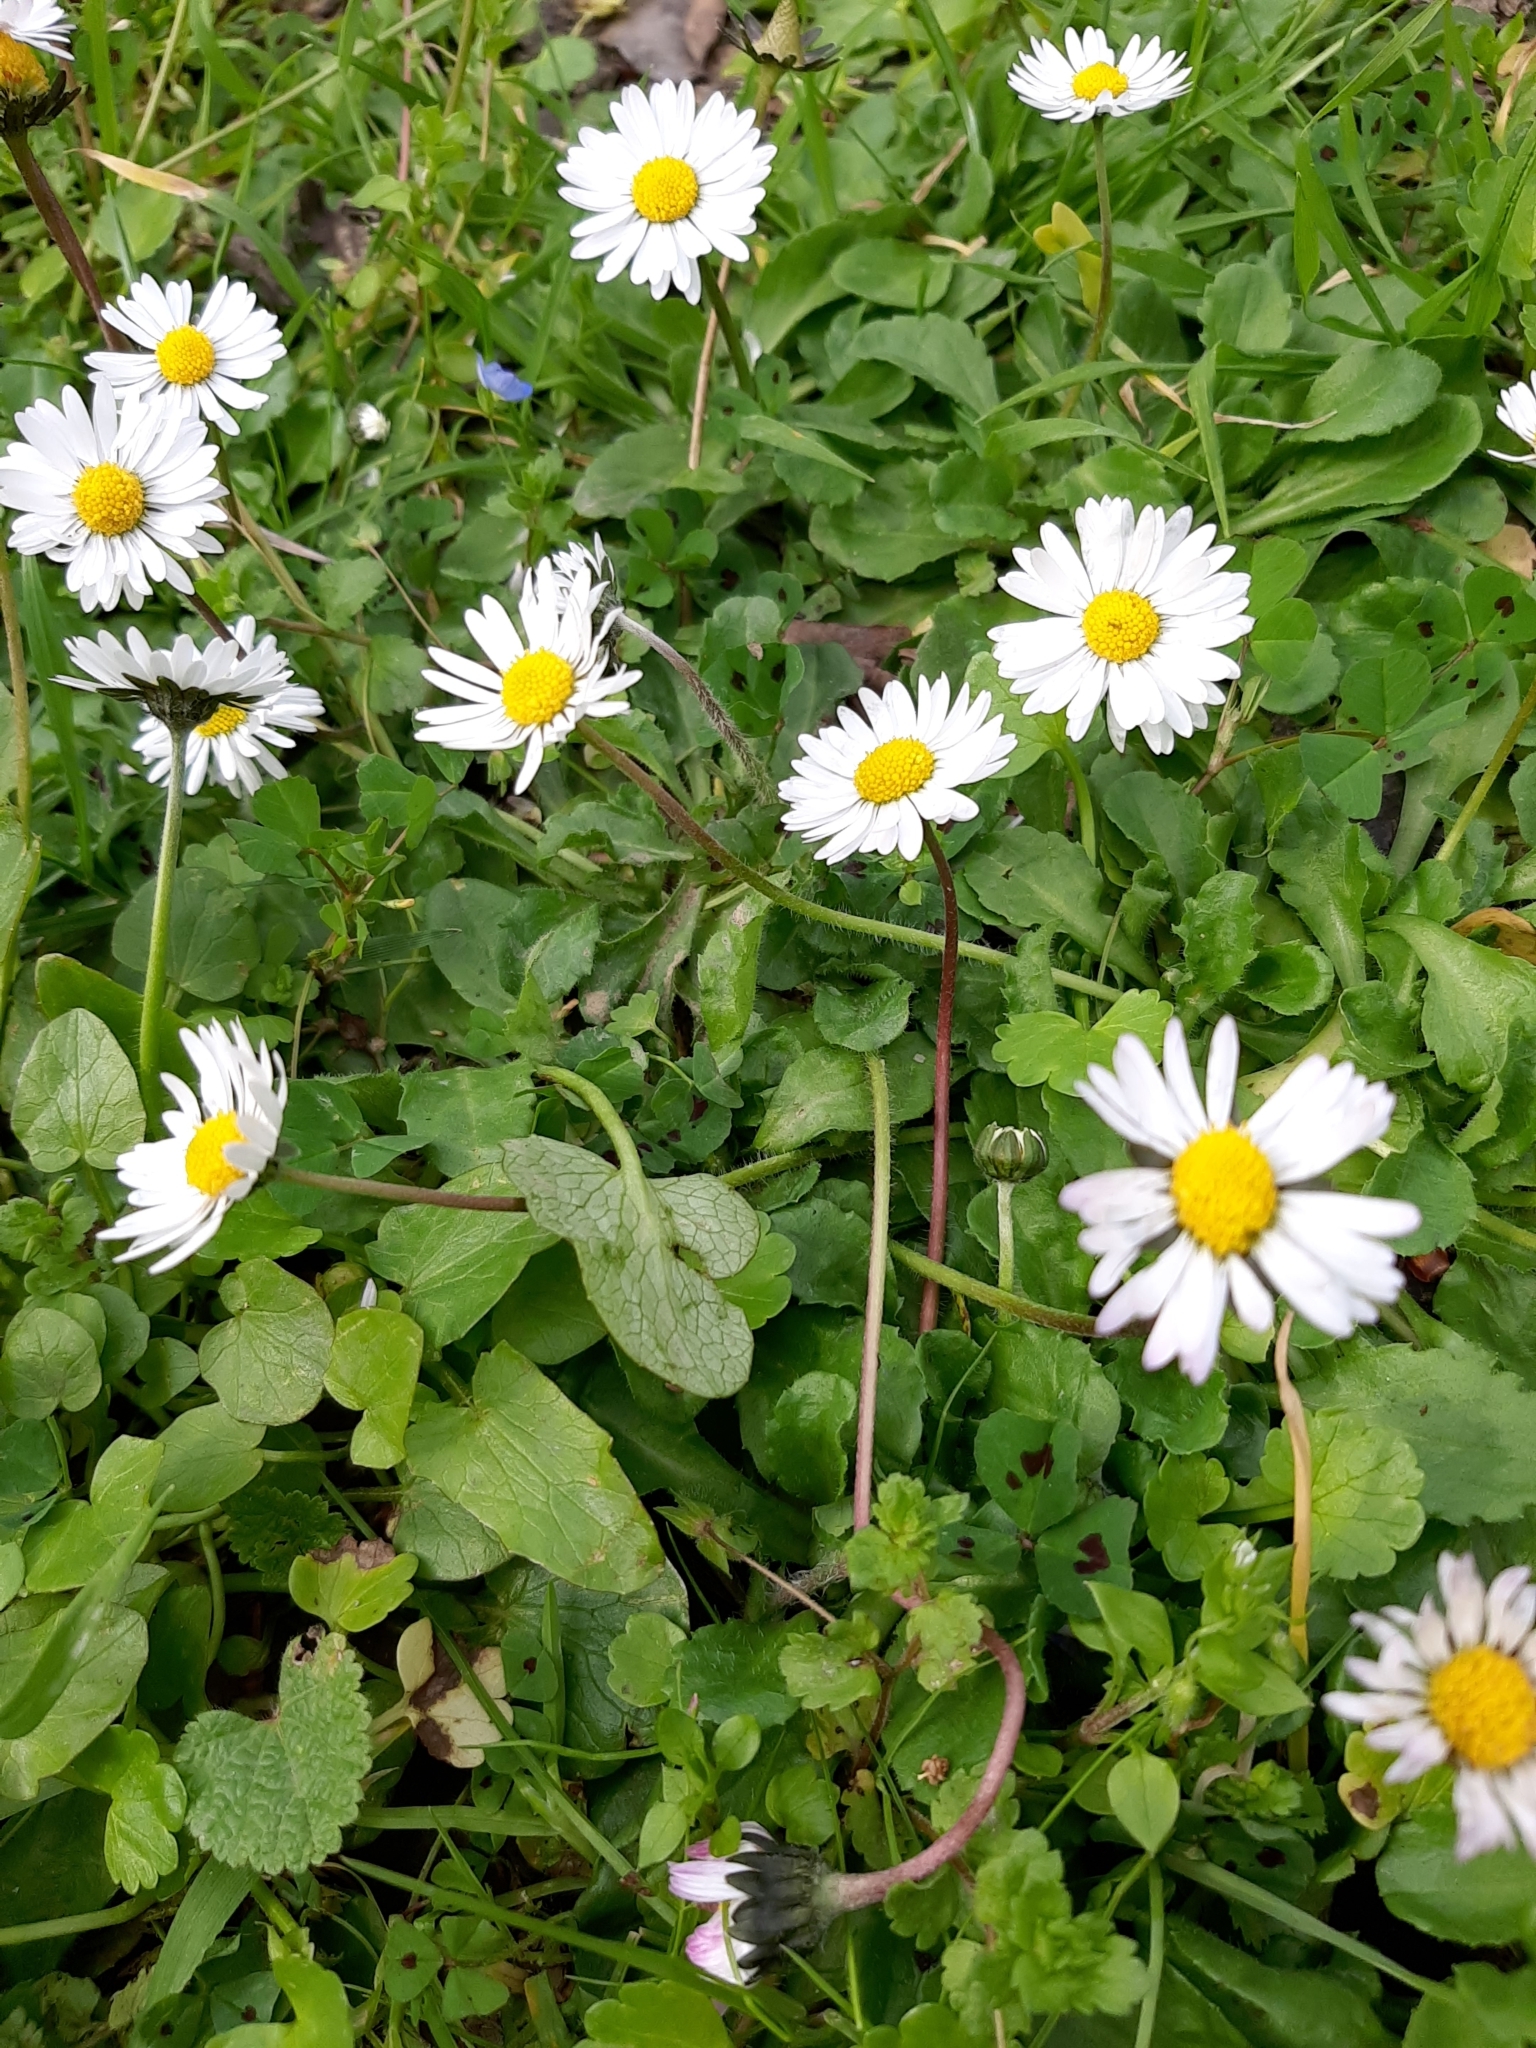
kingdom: Plantae
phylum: Tracheophyta
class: Magnoliopsida
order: Asterales
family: Asteraceae
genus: Bellis
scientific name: Bellis perennis
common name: Lawndaisy
